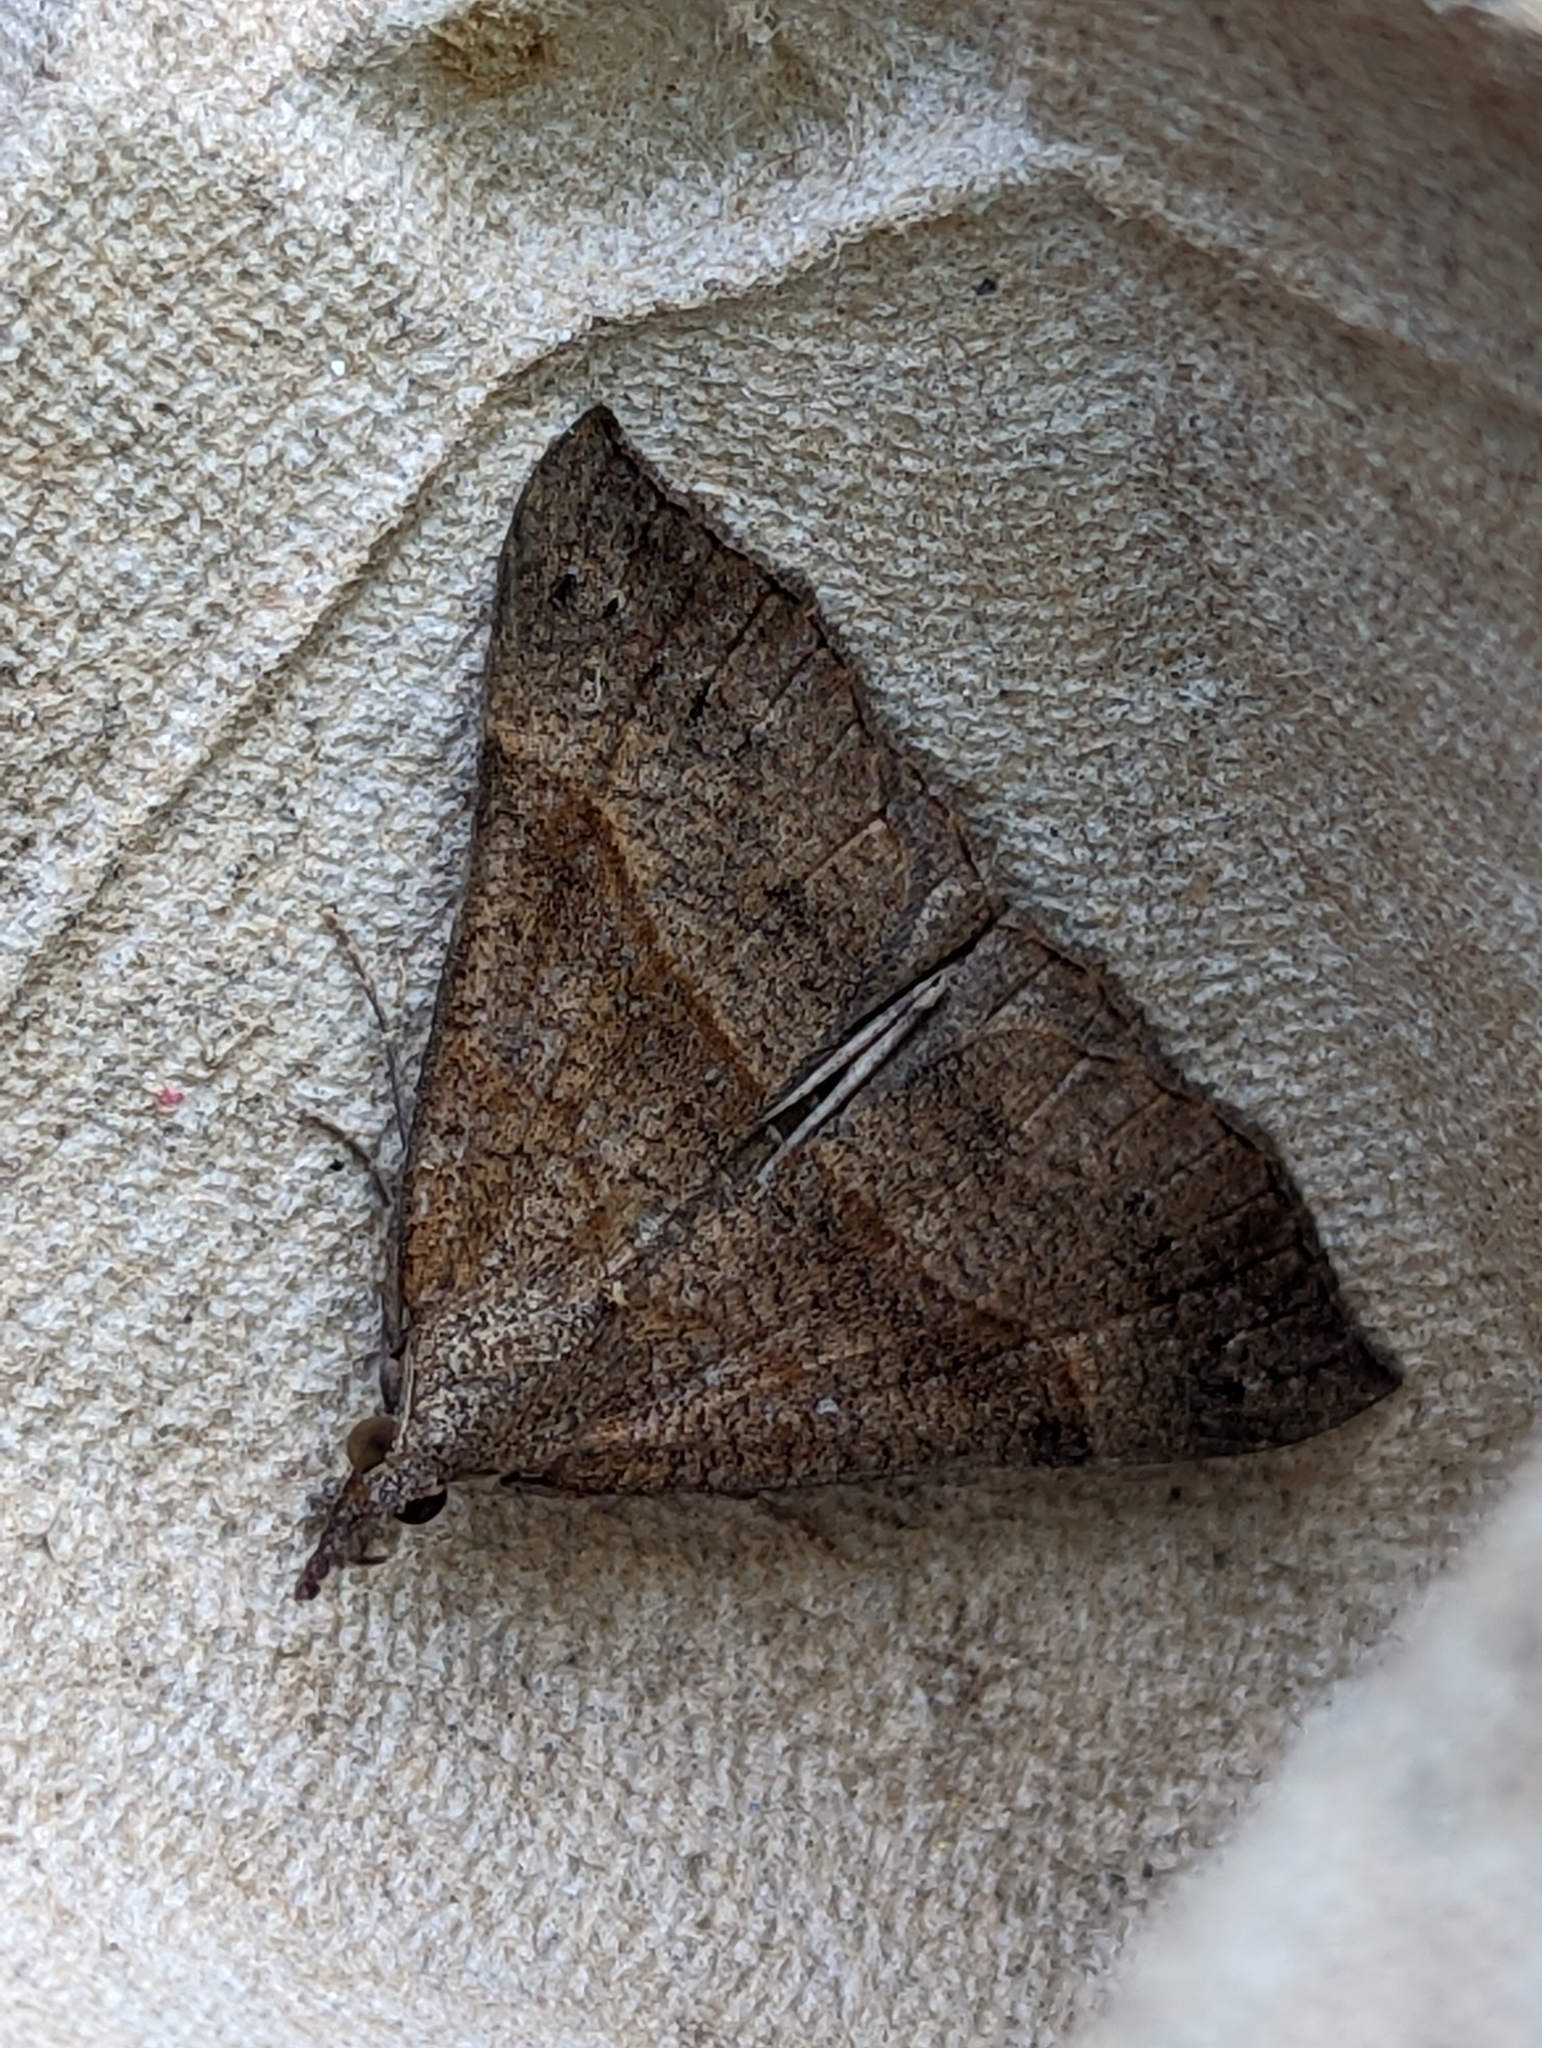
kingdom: Animalia
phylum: Arthropoda
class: Insecta
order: Lepidoptera
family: Erebidae
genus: Hypena
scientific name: Hypena proboscidalis
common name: Snout
